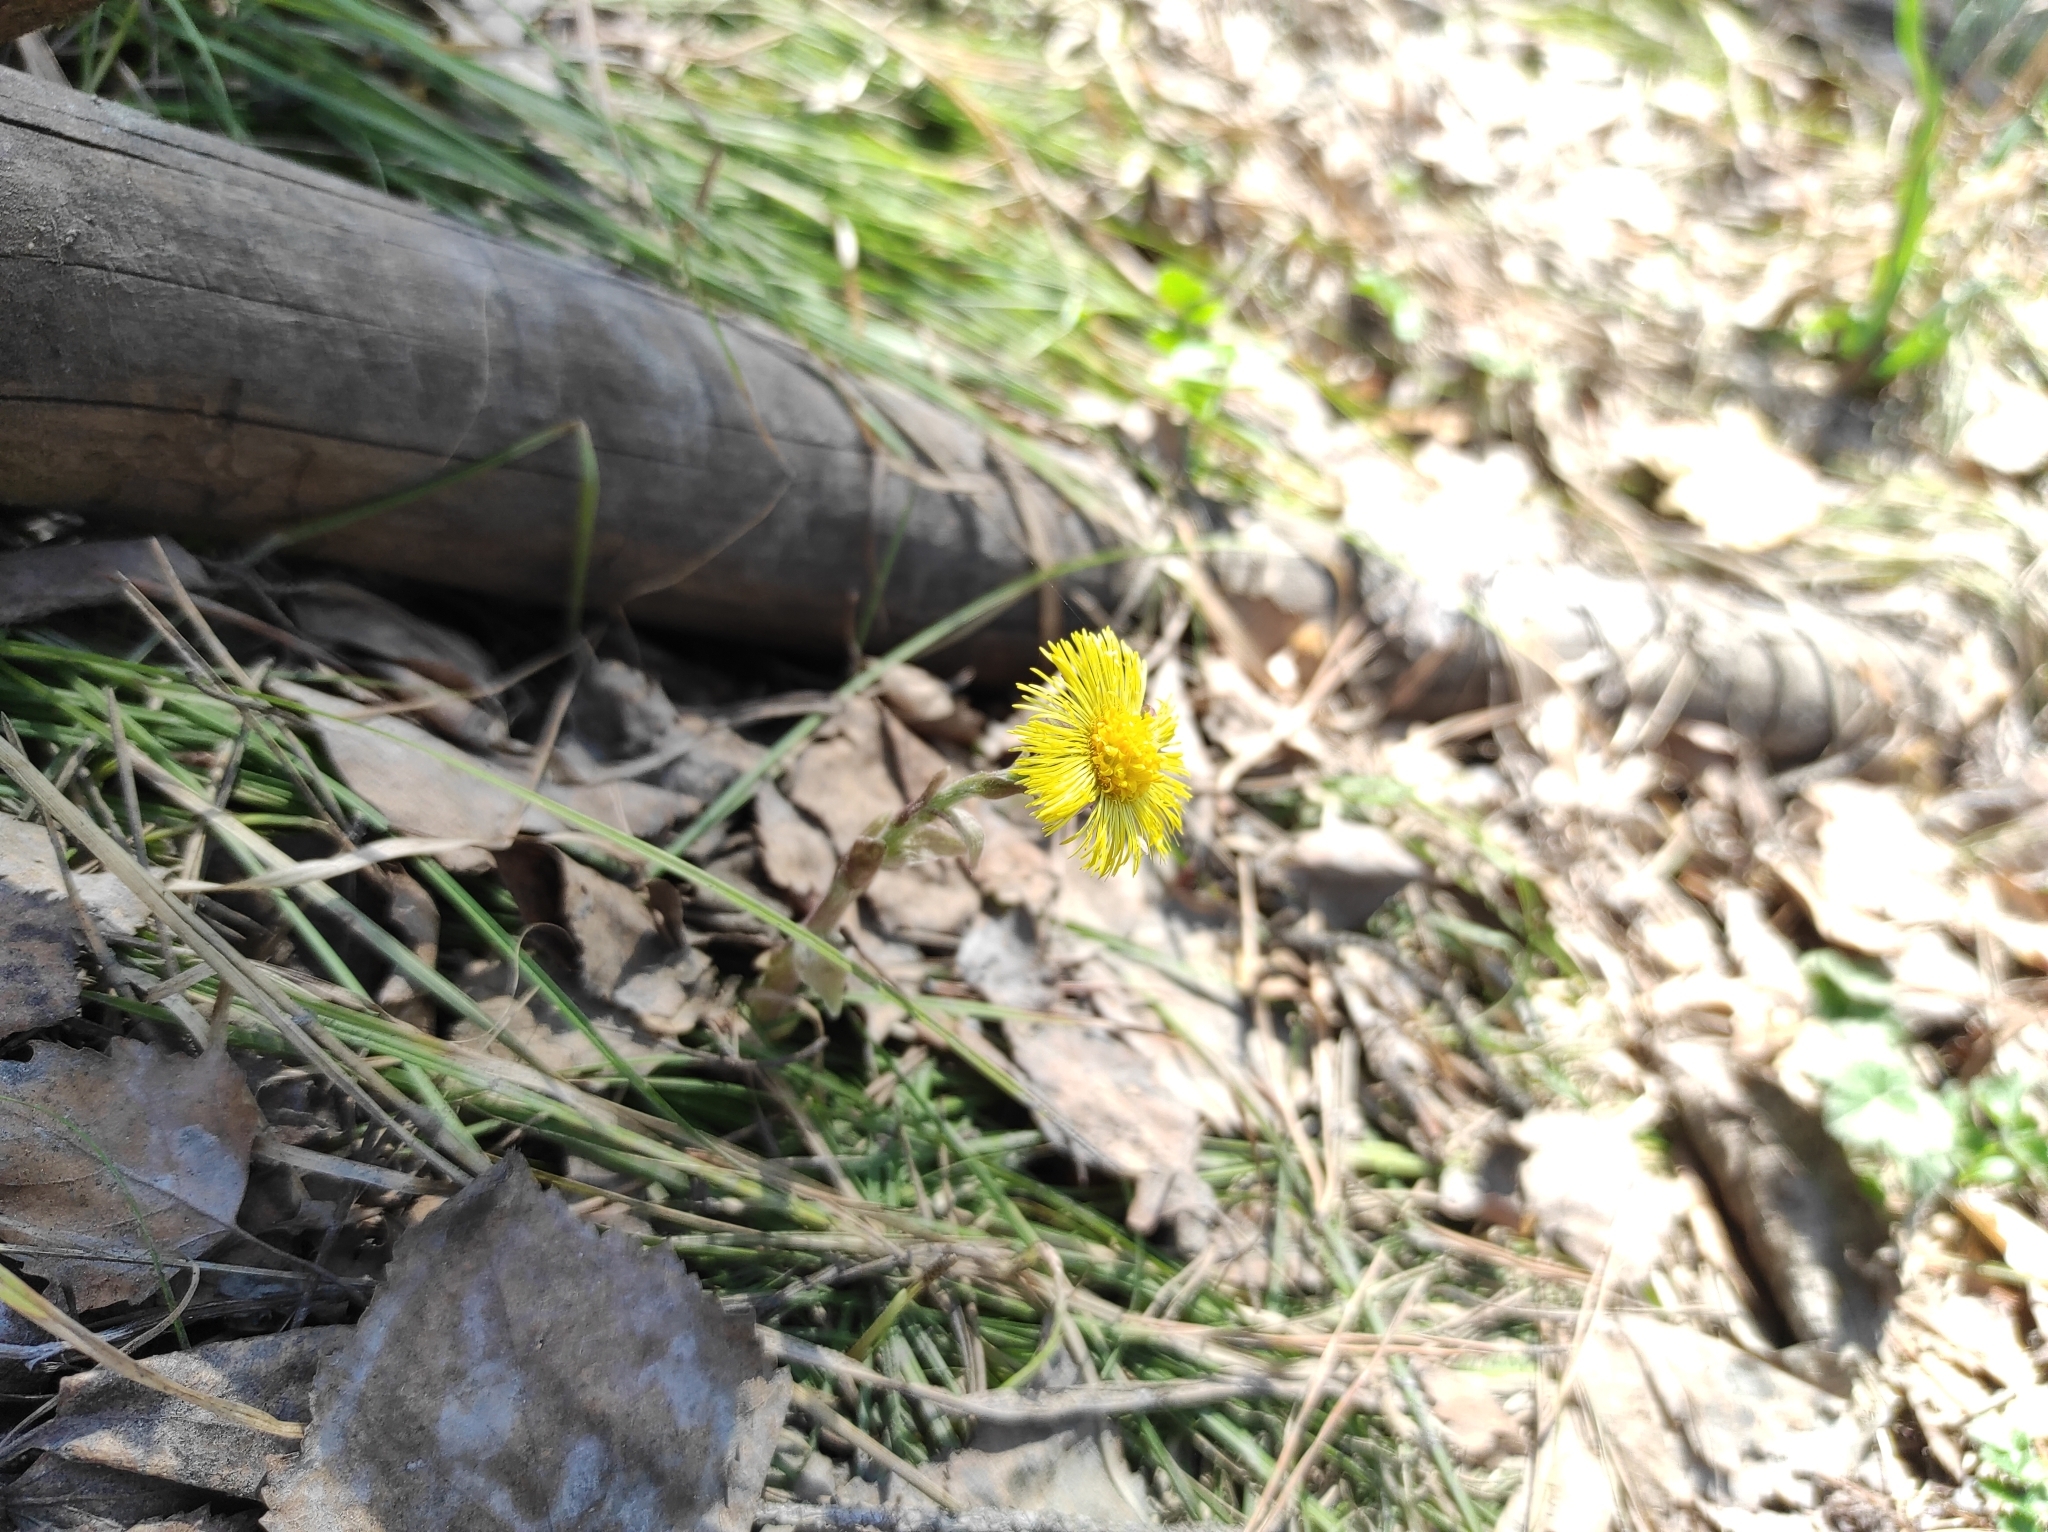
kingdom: Plantae
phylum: Tracheophyta
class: Magnoliopsida
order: Asterales
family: Asteraceae
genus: Tussilago
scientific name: Tussilago farfara
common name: Coltsfoot
